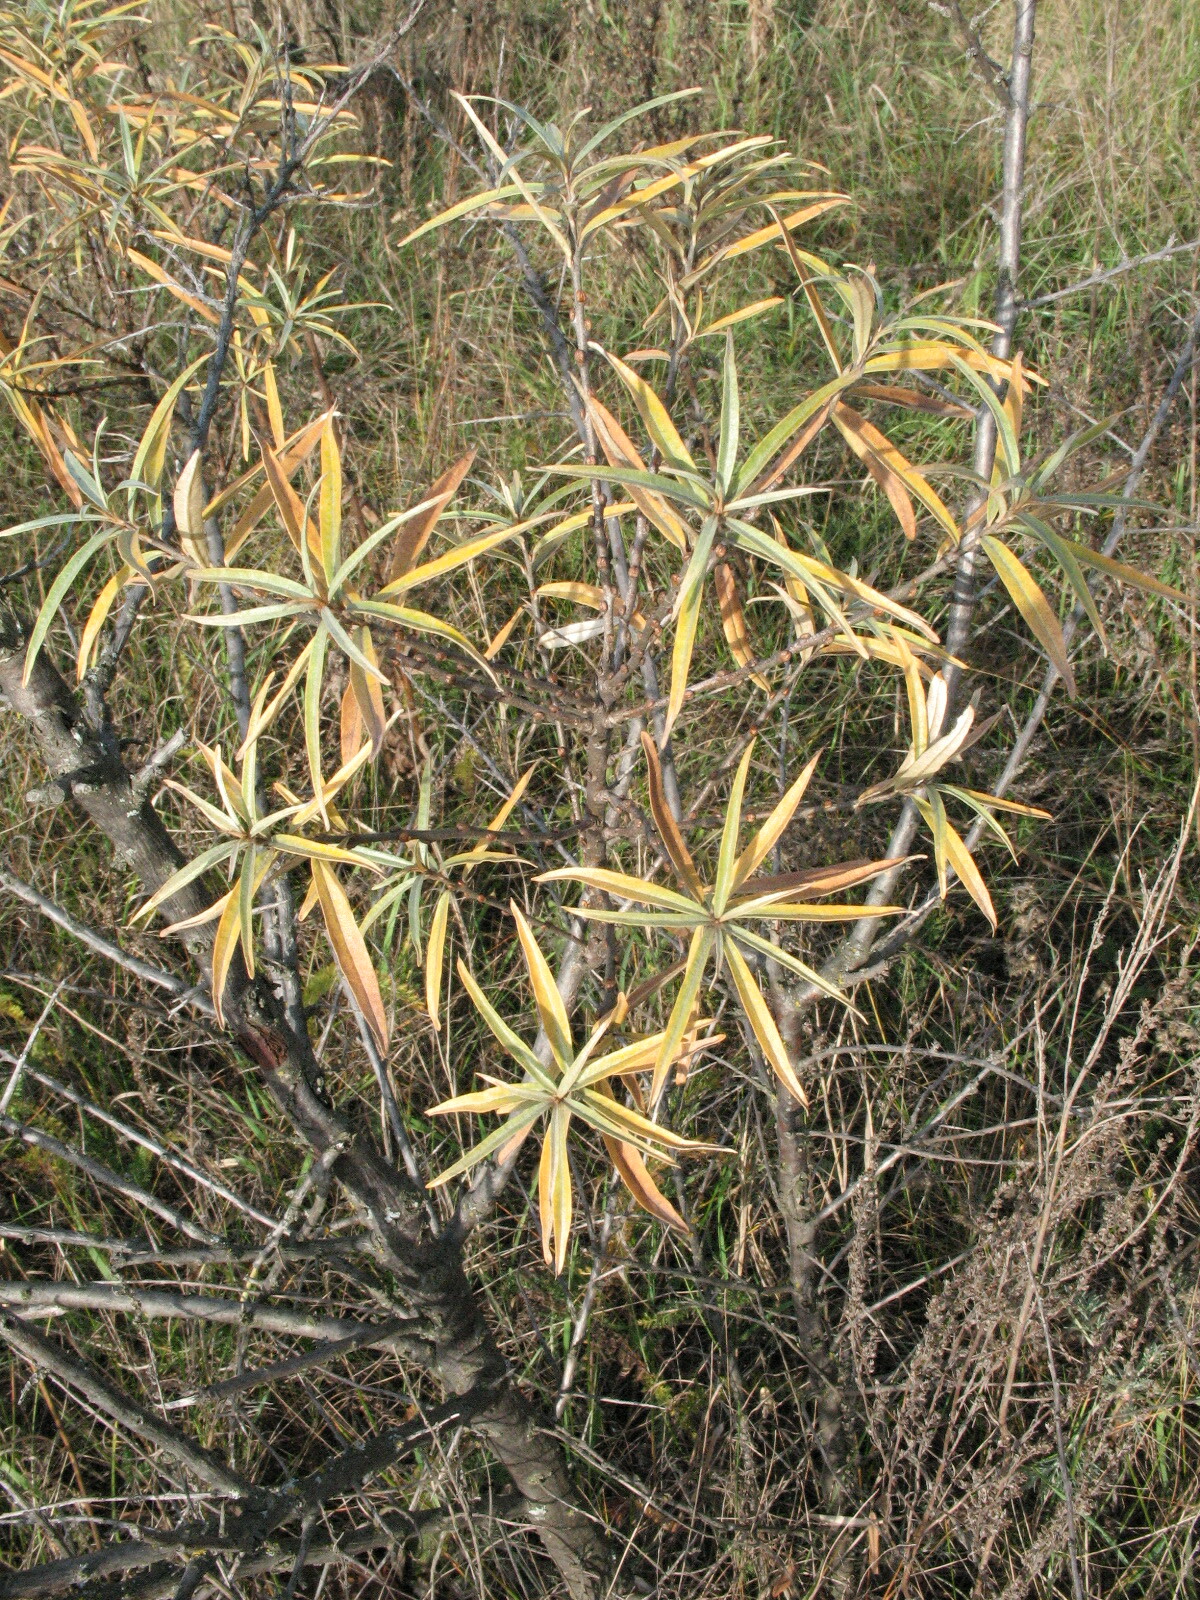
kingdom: Plantae
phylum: Tracheophyta
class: Magnoliopsida
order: Rosales
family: Elaeagnaceae
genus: Hippophae
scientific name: Hippophae rhamnoides
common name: Sea-buckthorn
